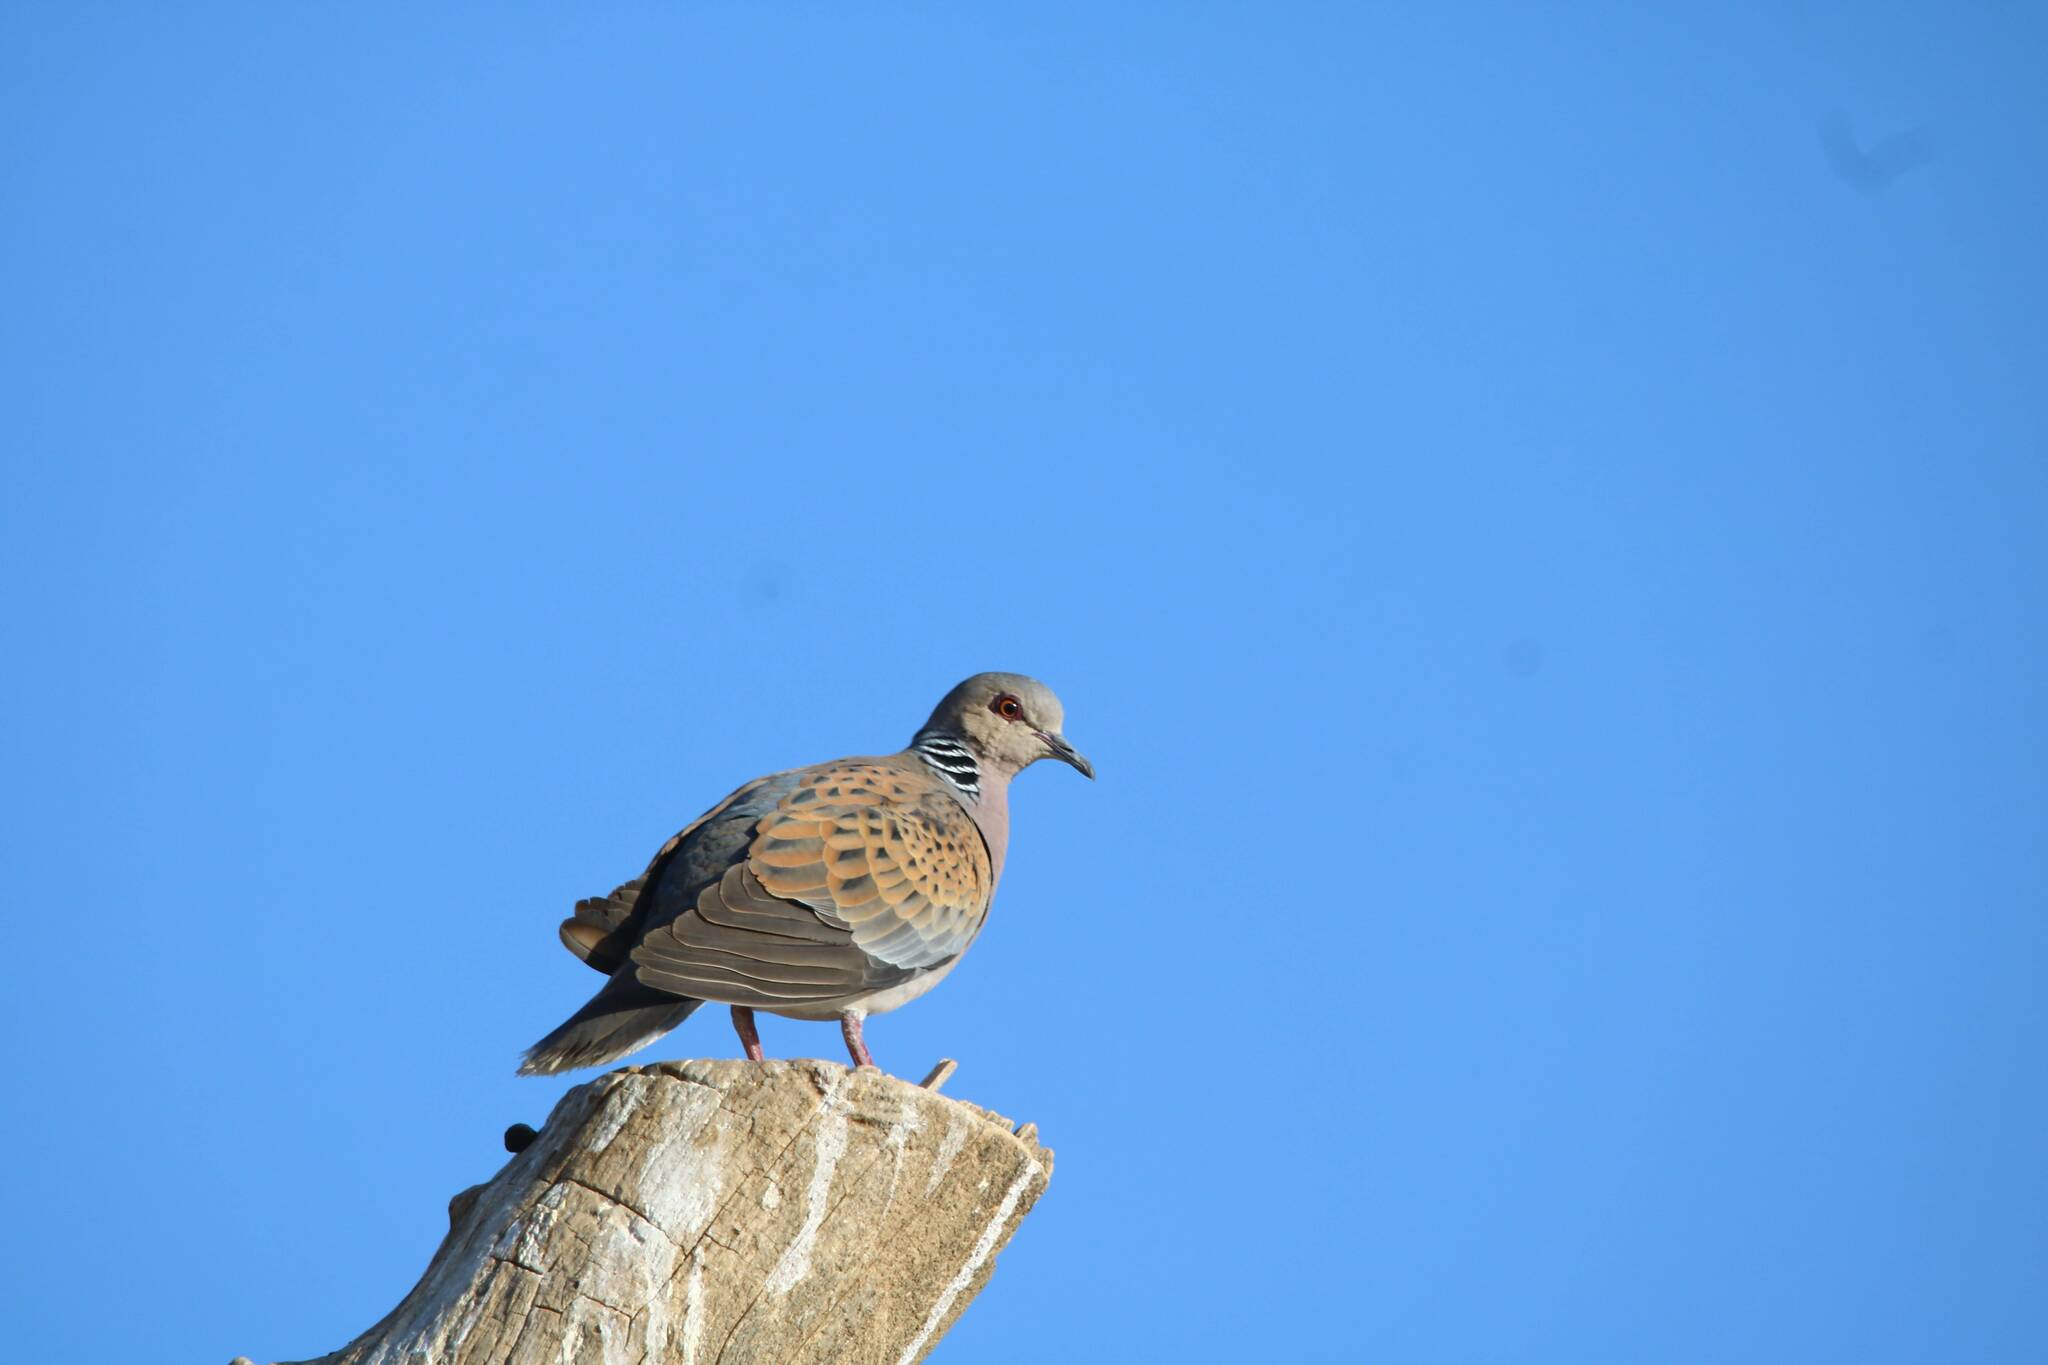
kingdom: Animalia
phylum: Chordata
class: Aves
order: Columbiformes
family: Columbidae
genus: Streptopelia
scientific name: Streptopelia turtur
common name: European turtle dove
